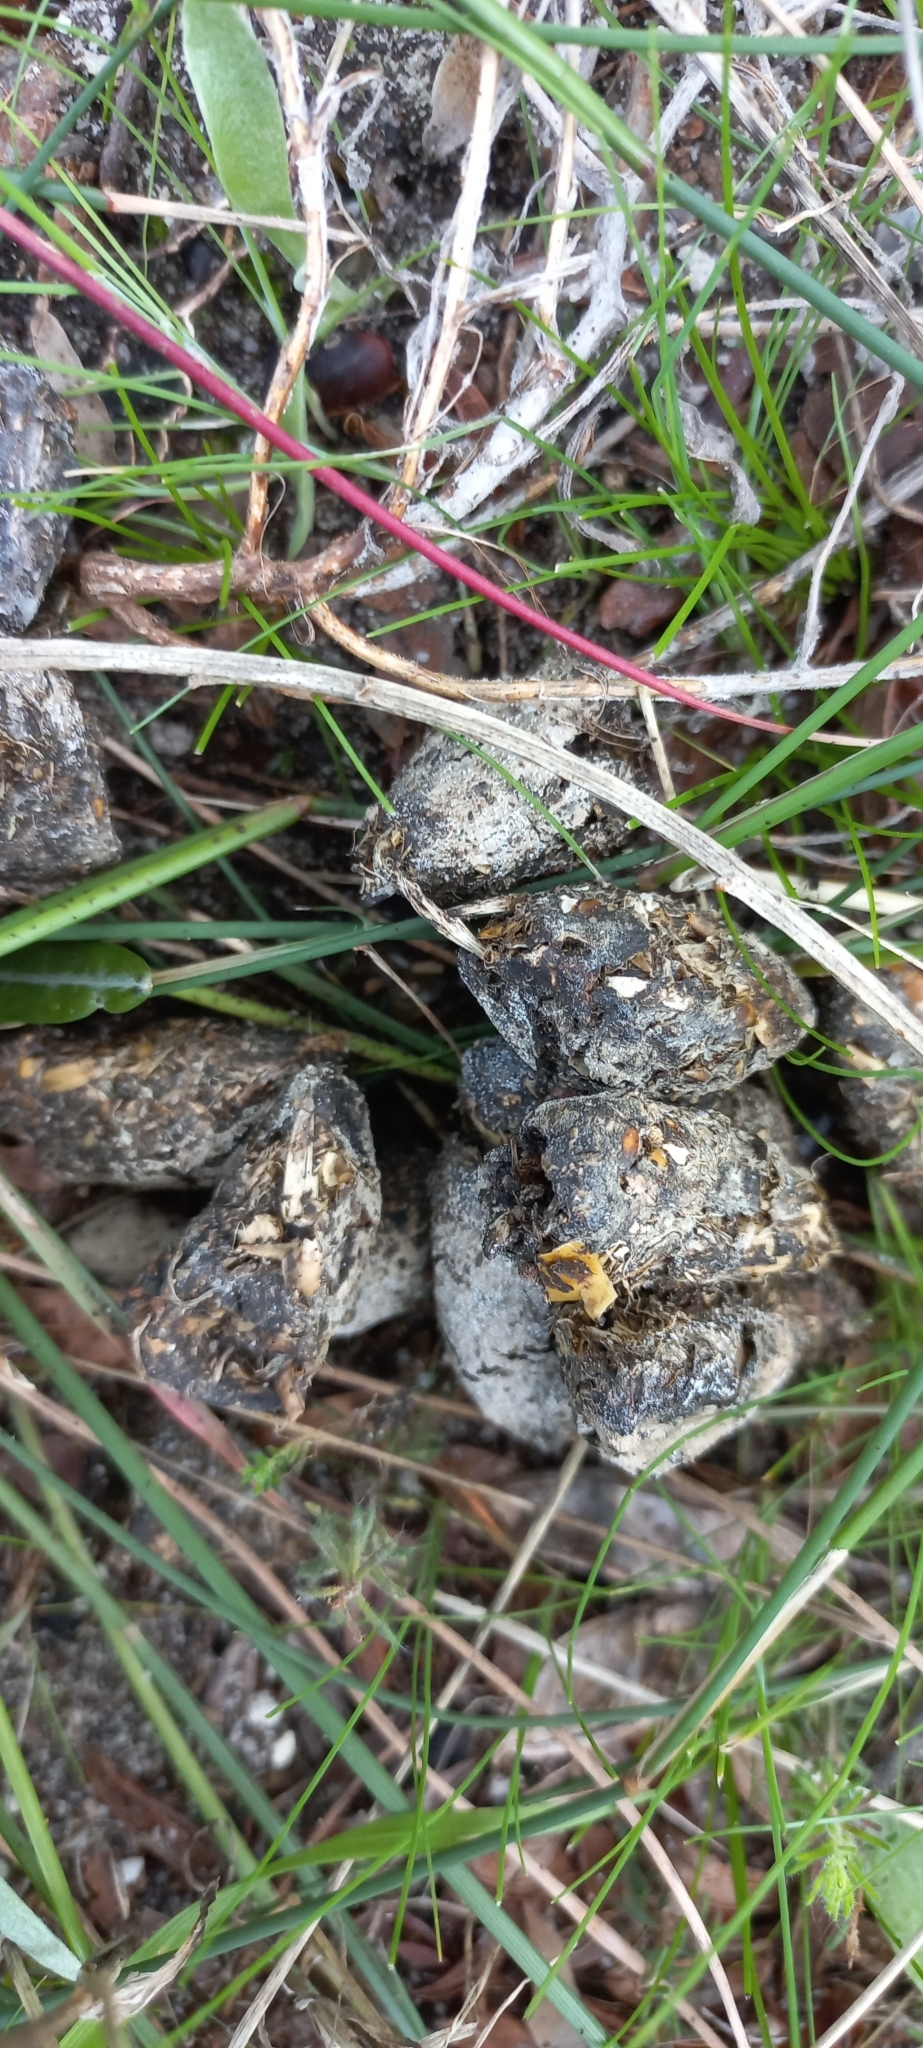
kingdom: Animalia
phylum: Chordata
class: Mammalia
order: Rodentia
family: Hystricidae
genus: Hystrix
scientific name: Hystrix africaeaustralis
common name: Cape porcupine
